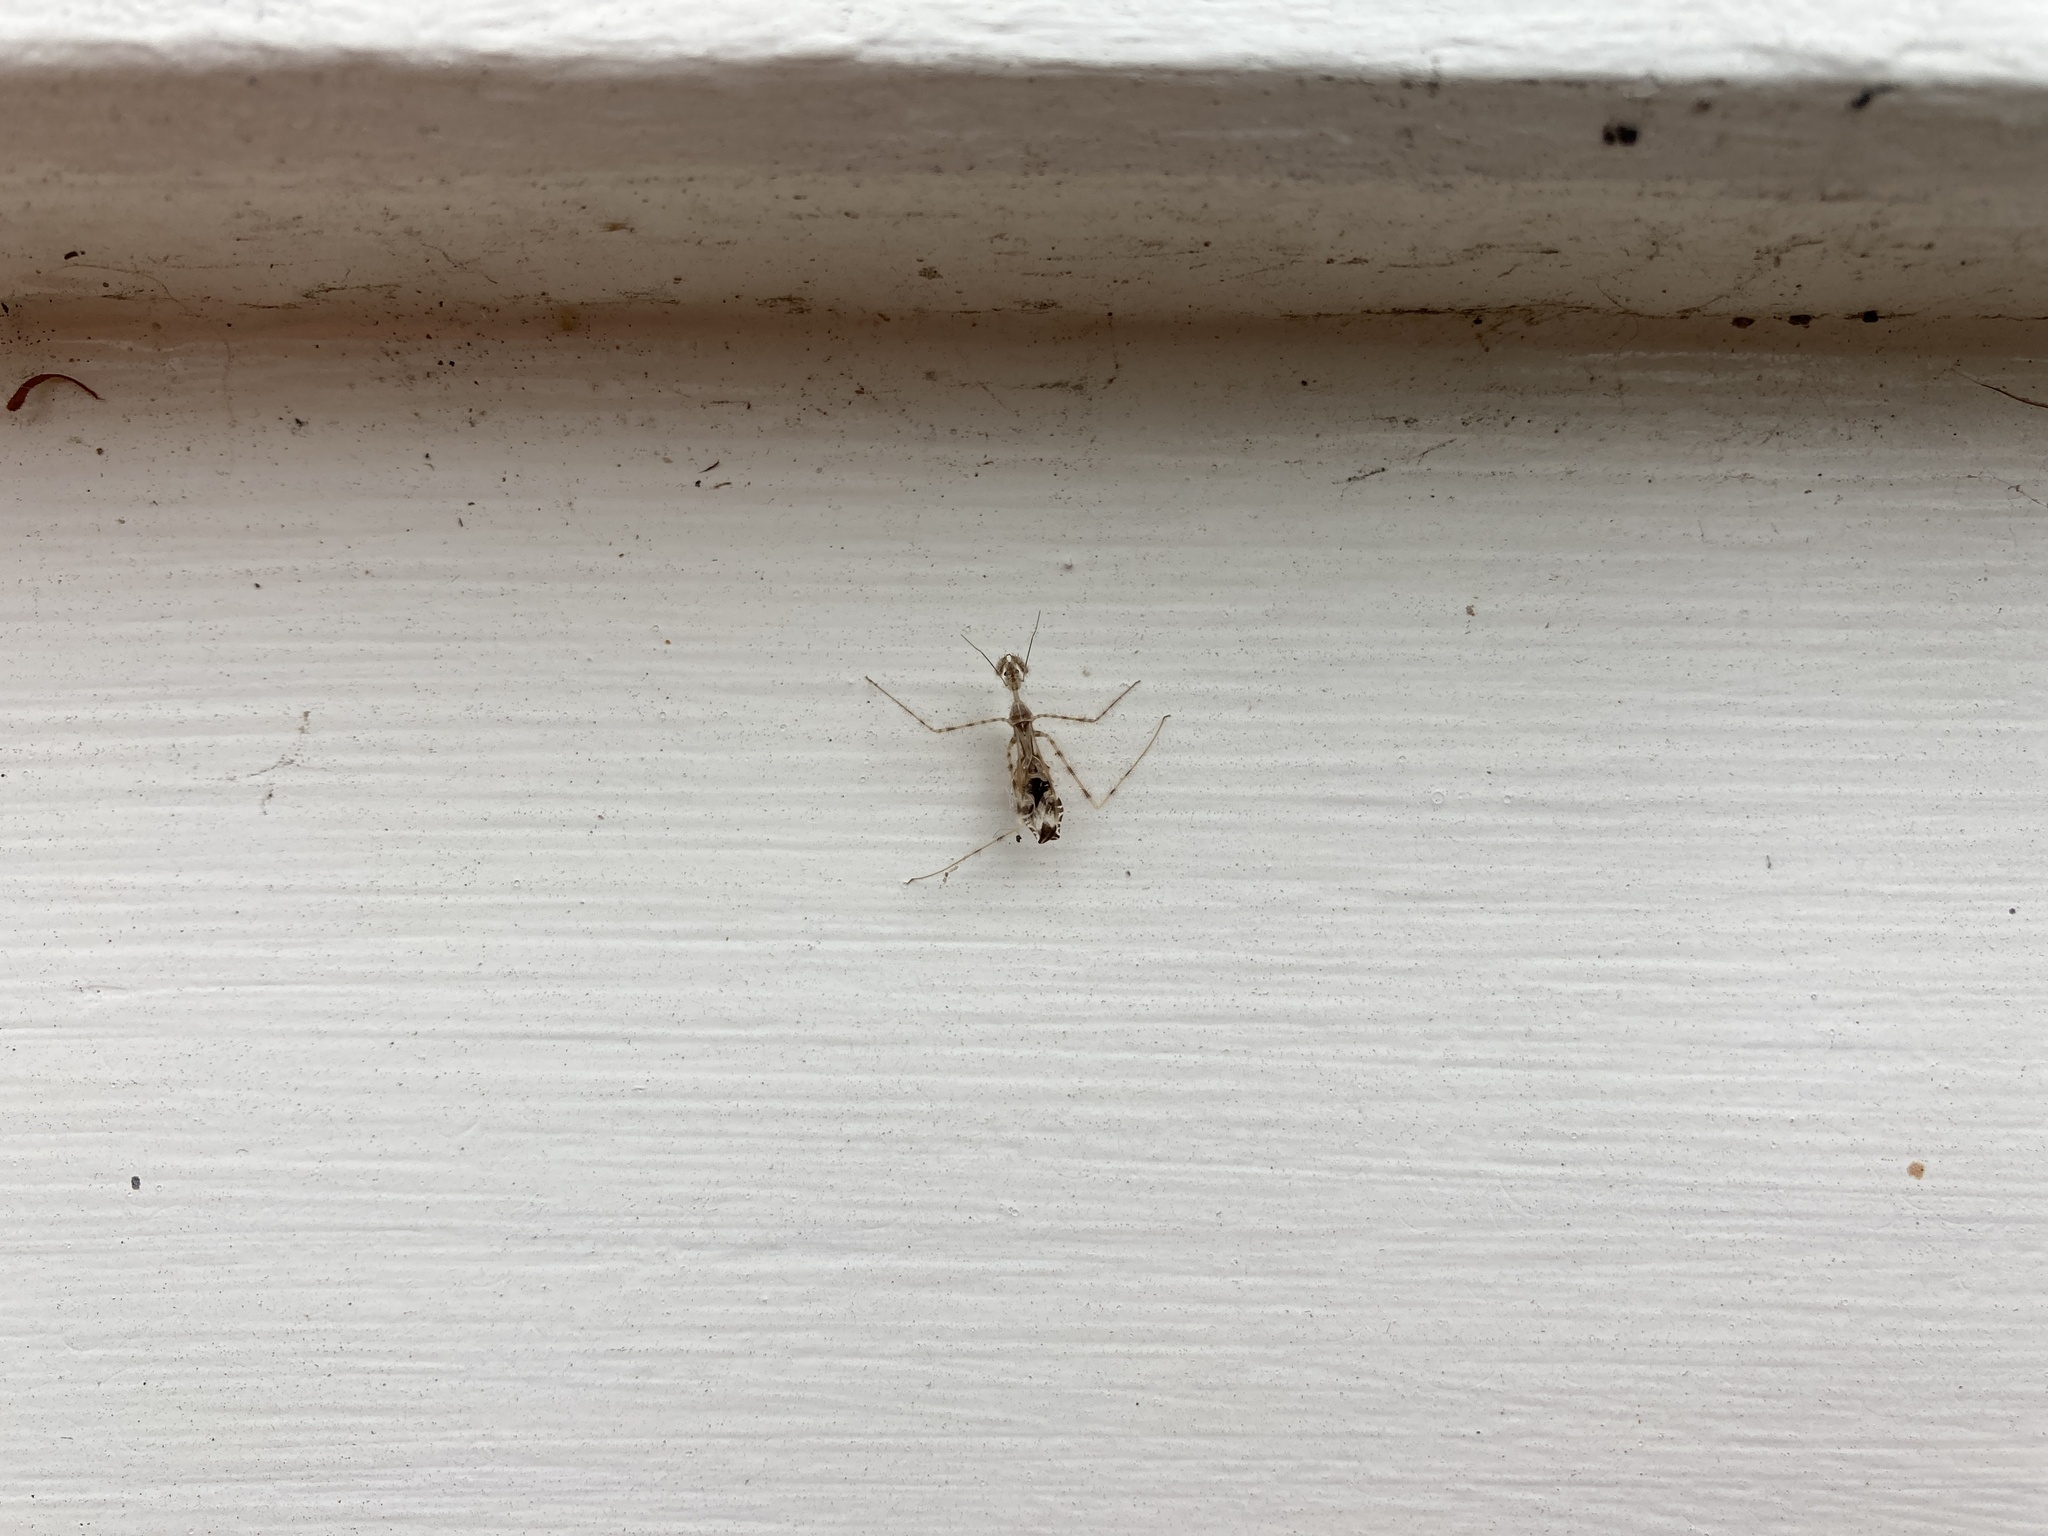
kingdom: Animalia
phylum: Arthropoda
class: Insecta
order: Hemiptera
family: Reduviidae
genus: Stenolemus
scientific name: Stenolemus fraterculus
